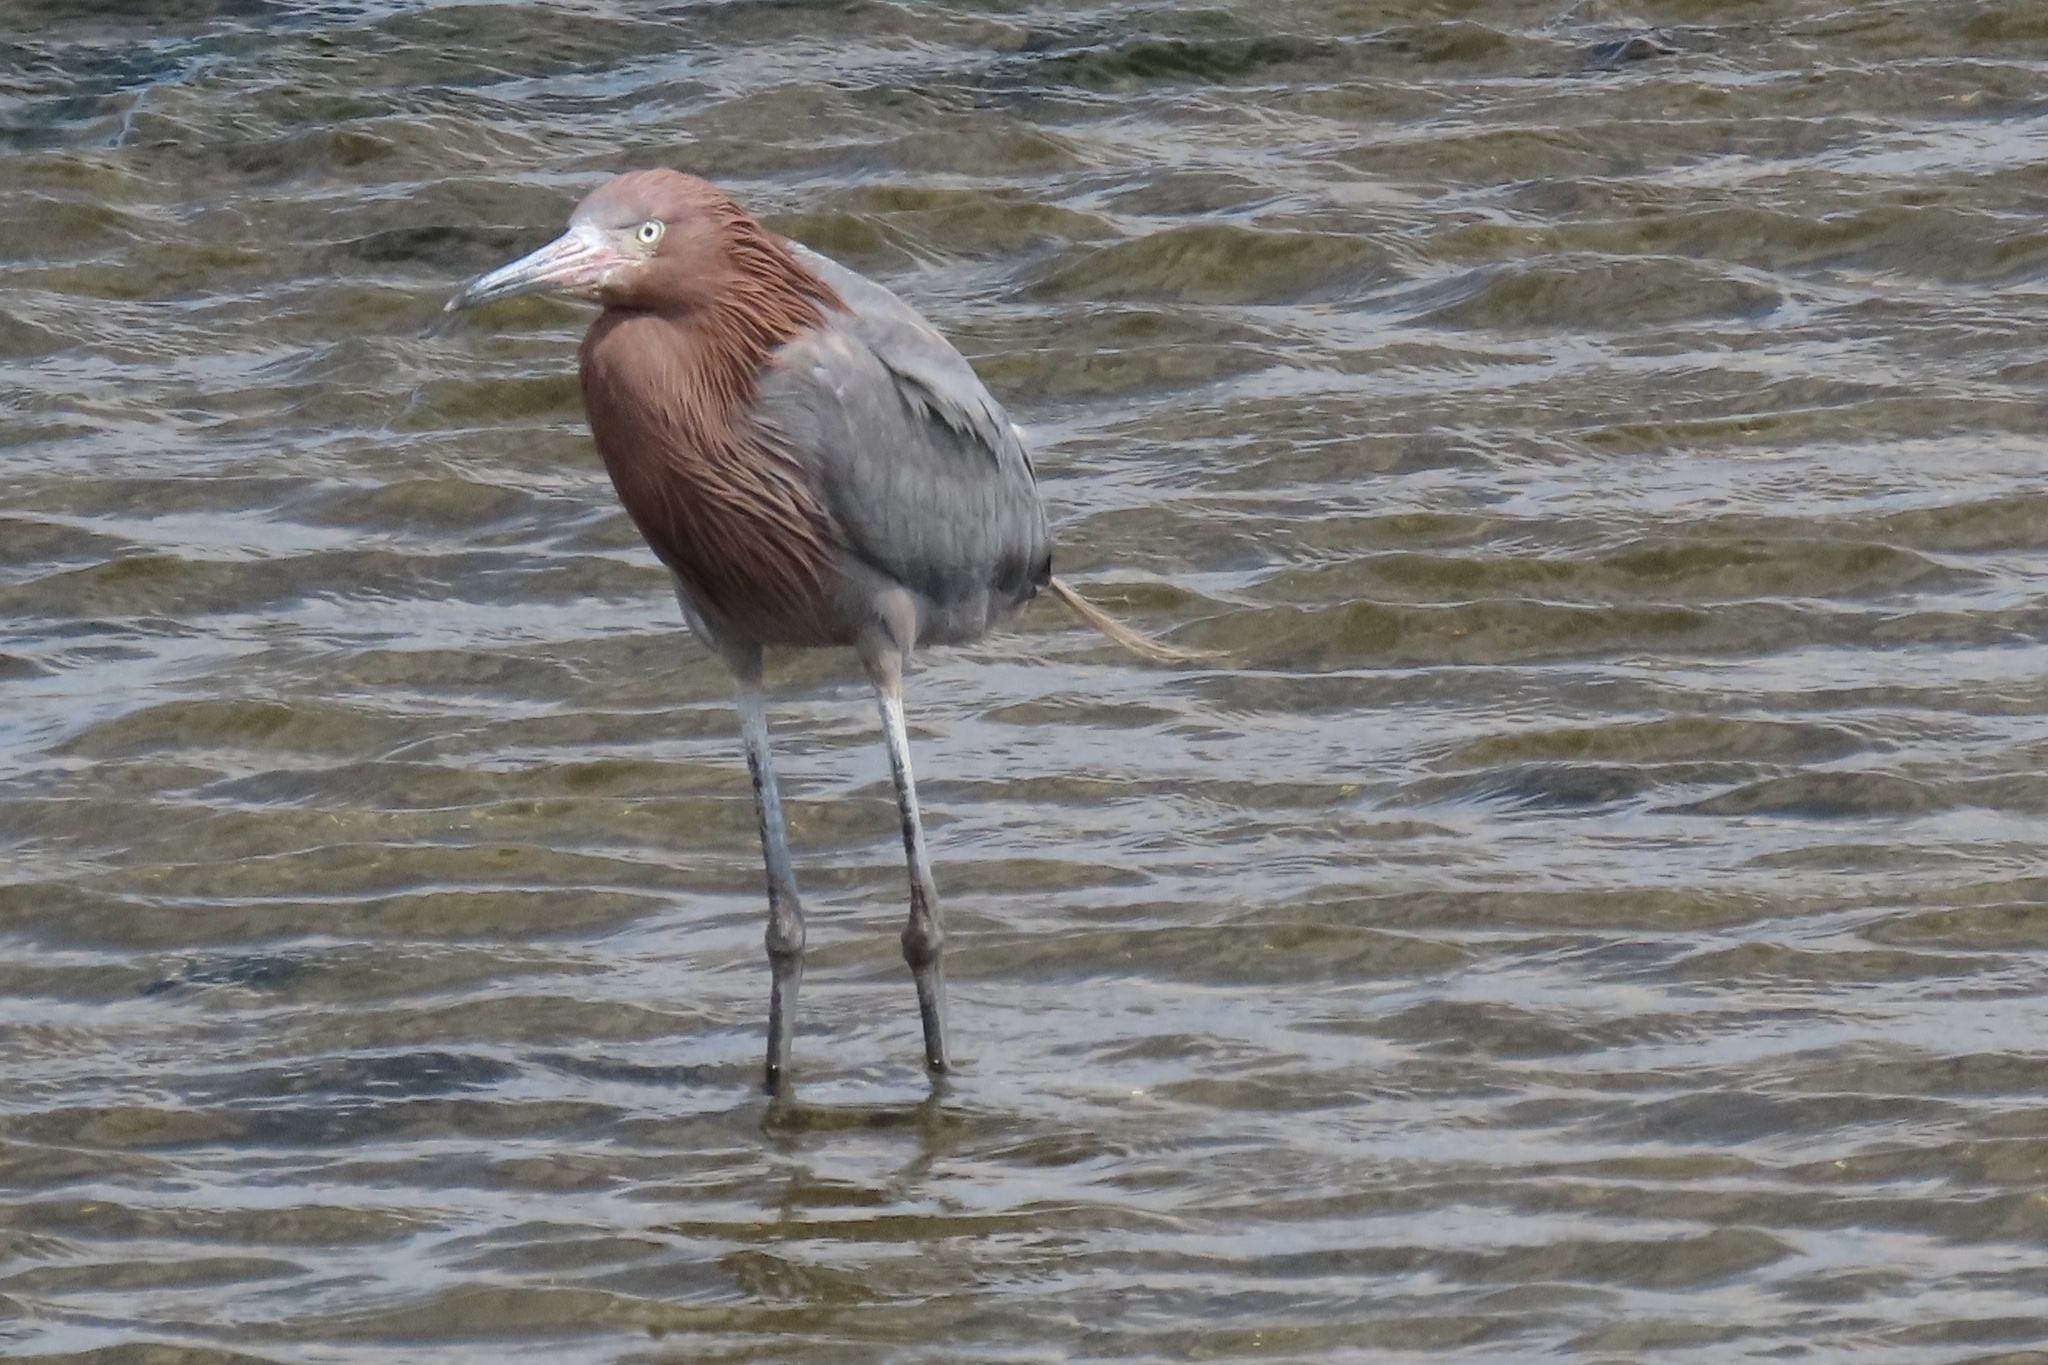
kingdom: Animalia
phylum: Chordata
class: Aves
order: Pelecaniformes
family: Ardeidae
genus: Egretta
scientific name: Egretta rufescens
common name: Reddish egret
